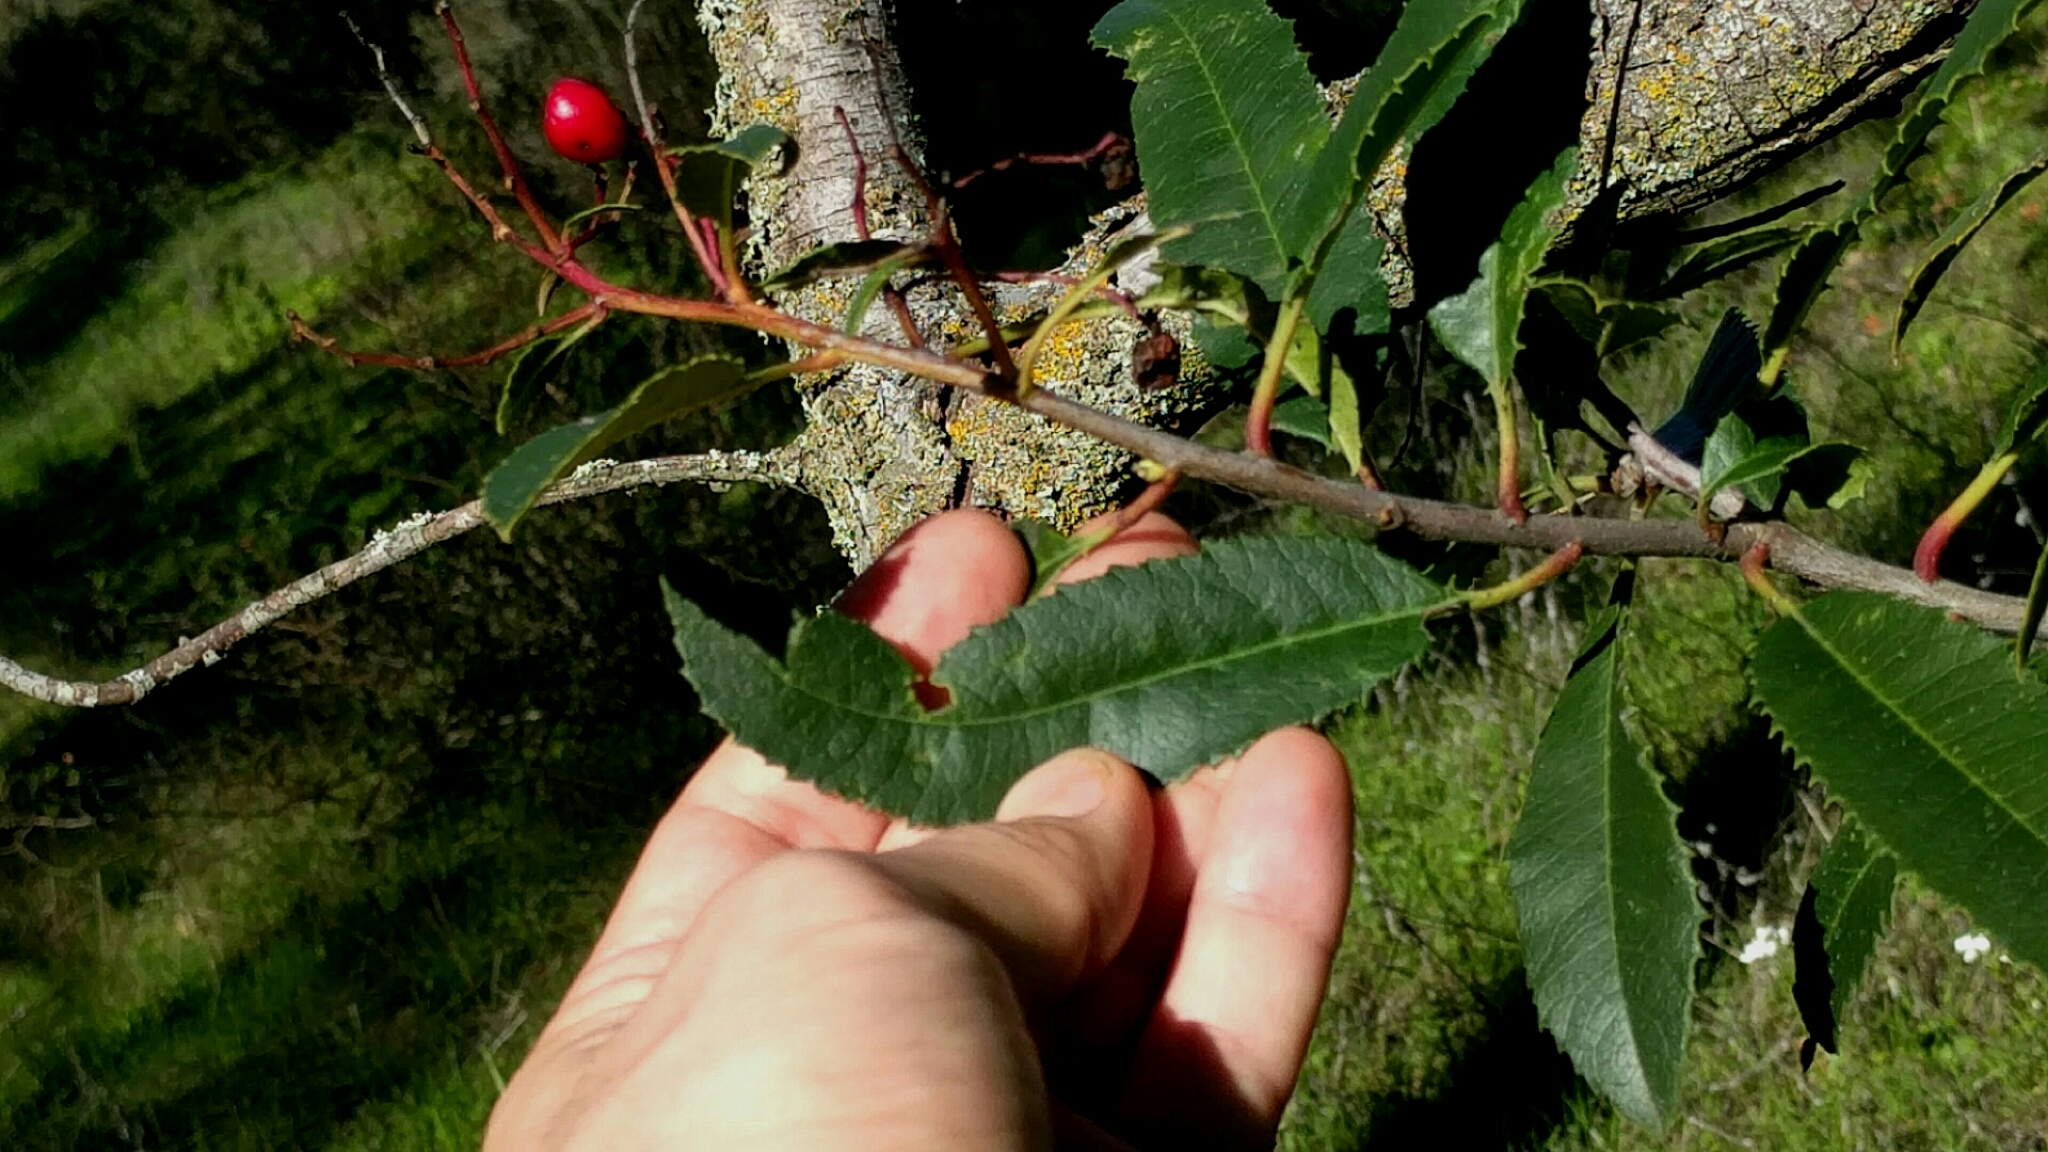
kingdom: Plantae
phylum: Tracheophyta
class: Magnoliopsida
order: Rosales
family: Rosaceae
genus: Heteromeles
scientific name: Heteromeles arbutifolia
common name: California-holly
